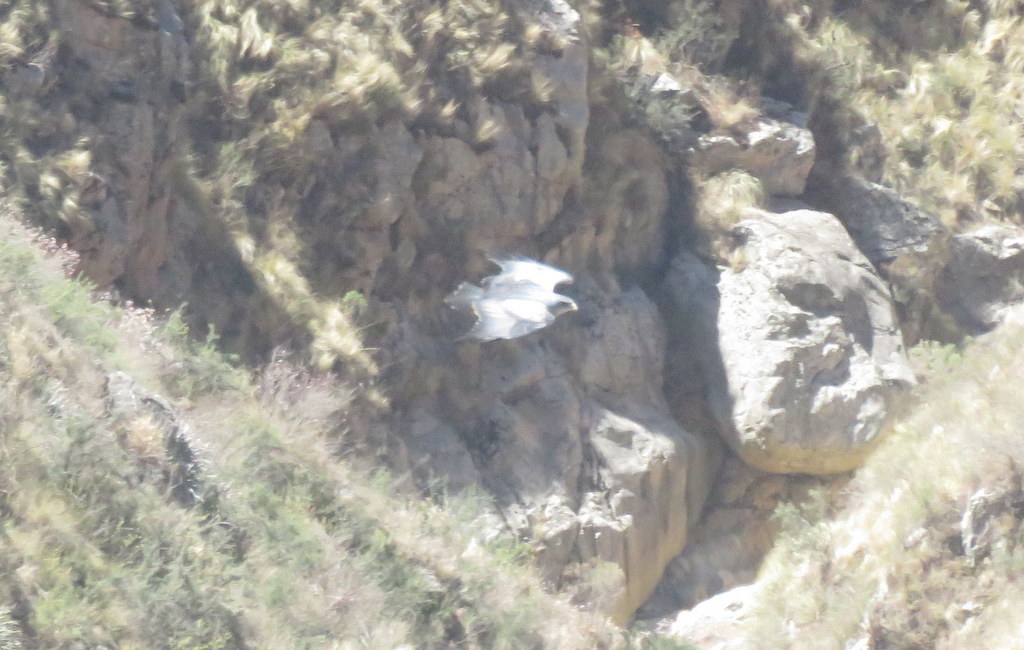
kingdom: Animalia
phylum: Chordata
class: Aves
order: Accipitriformes
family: Accipitridae
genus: Geranoaetus
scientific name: Geranoaetus melanoleucus
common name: Black-chested buzzard-eagle
